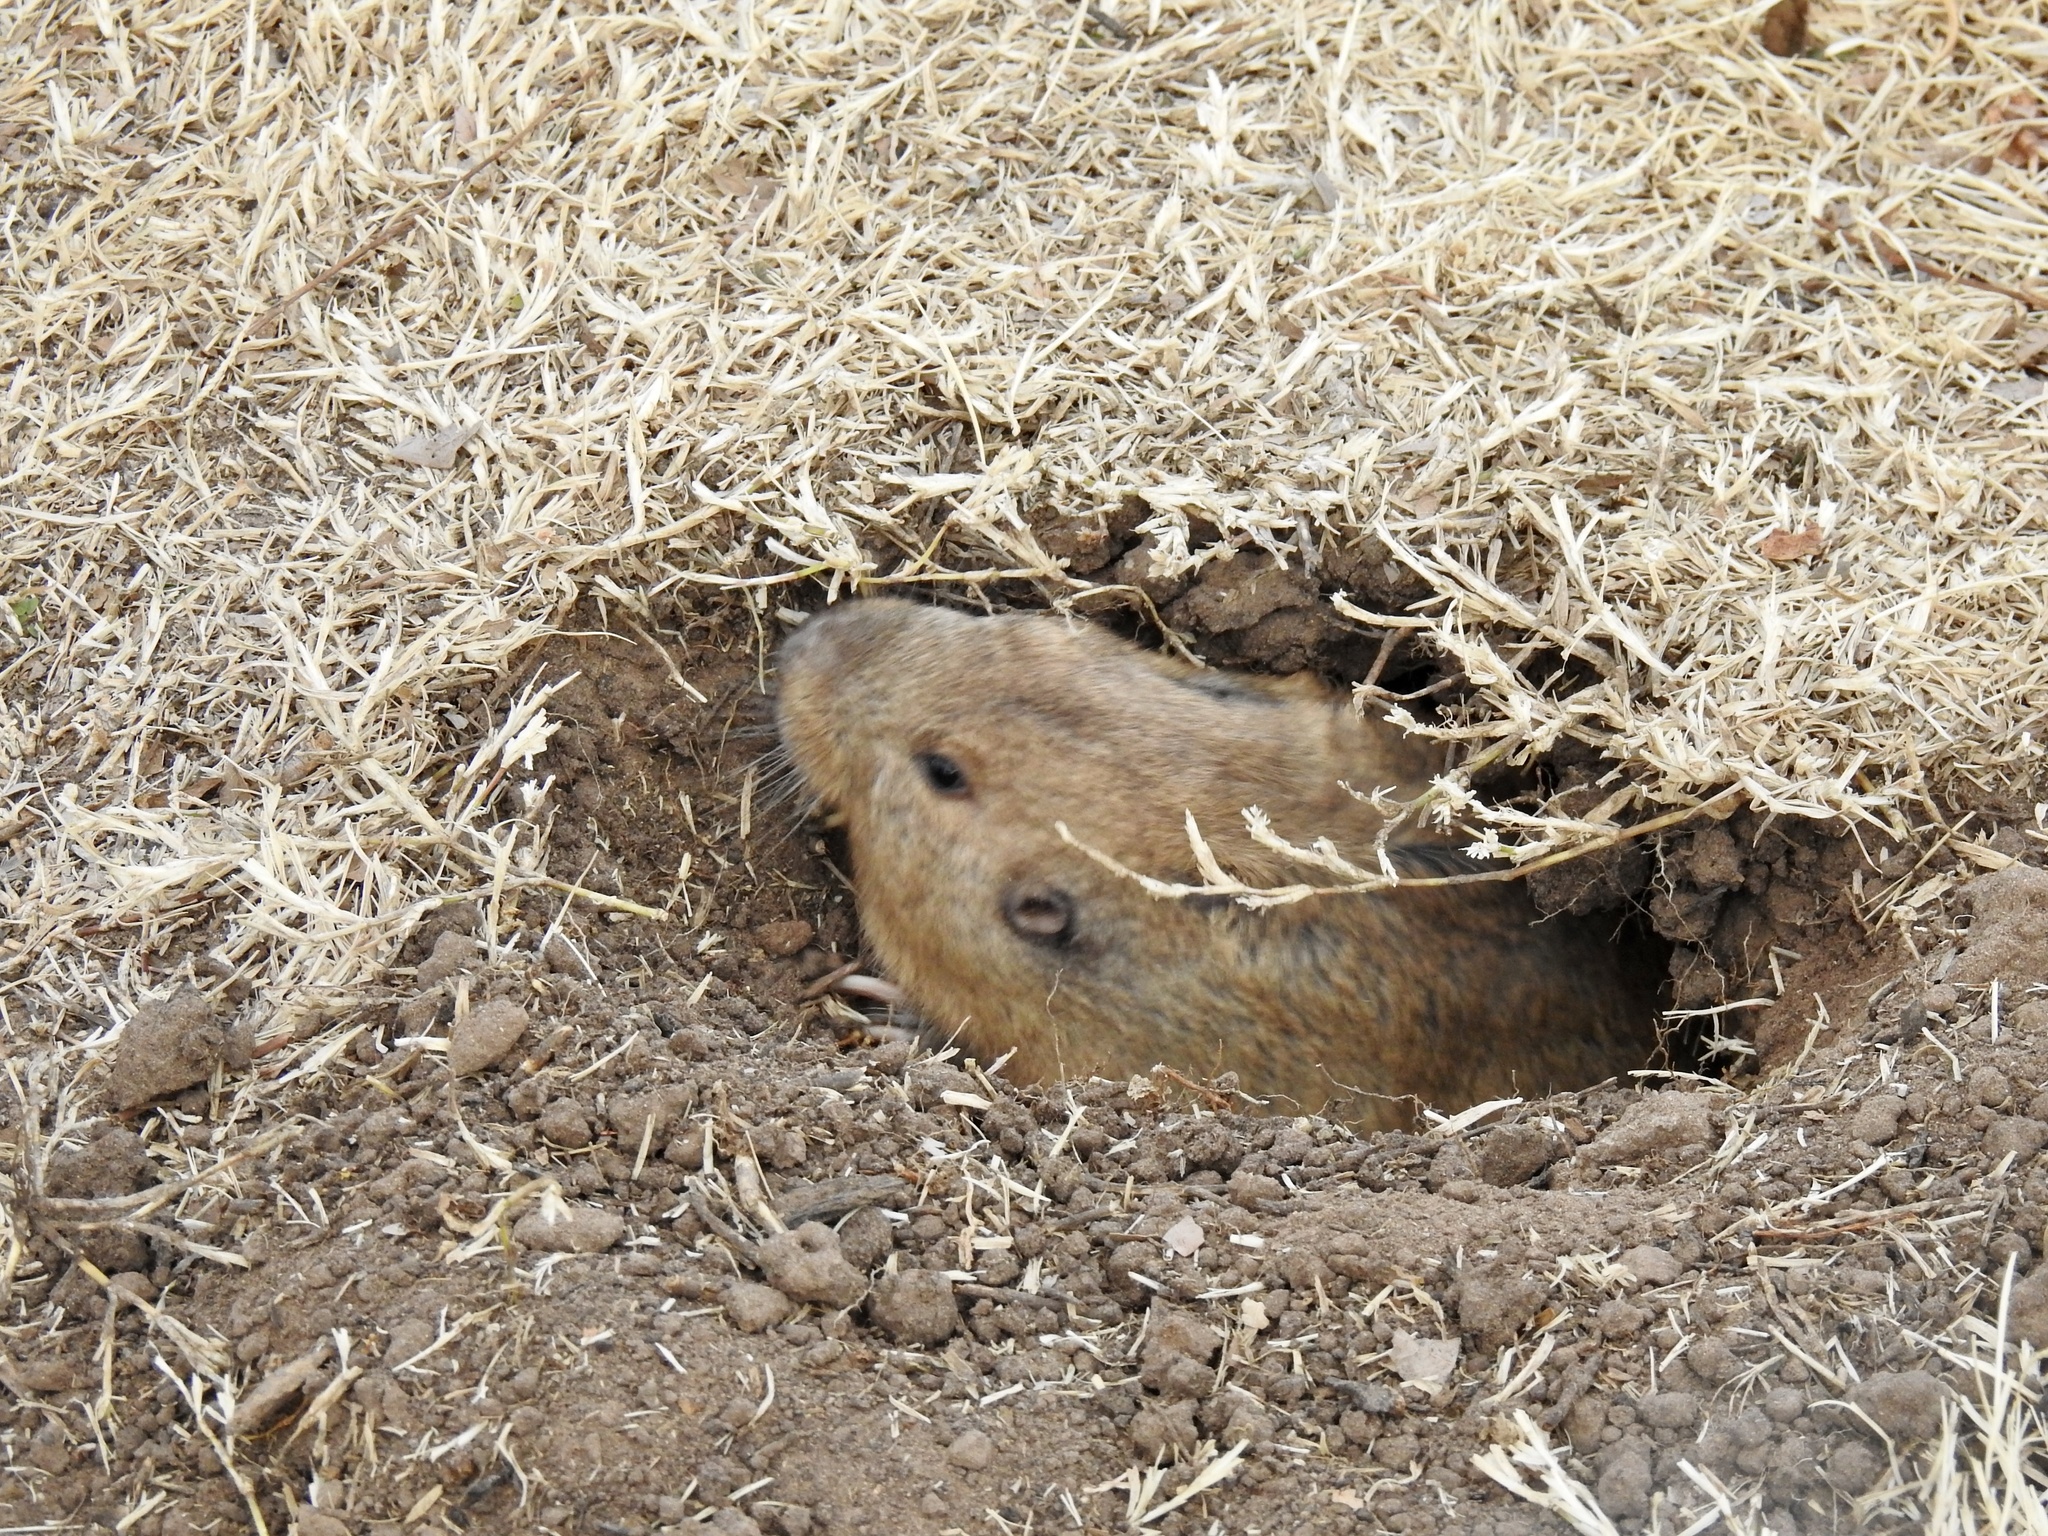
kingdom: Animalia
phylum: Chordata
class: Mammalia
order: Rodentia
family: Geomyidae
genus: Cratogeomys
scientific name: Cratogeomys castanops
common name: Yellow-faced pocket gopher
